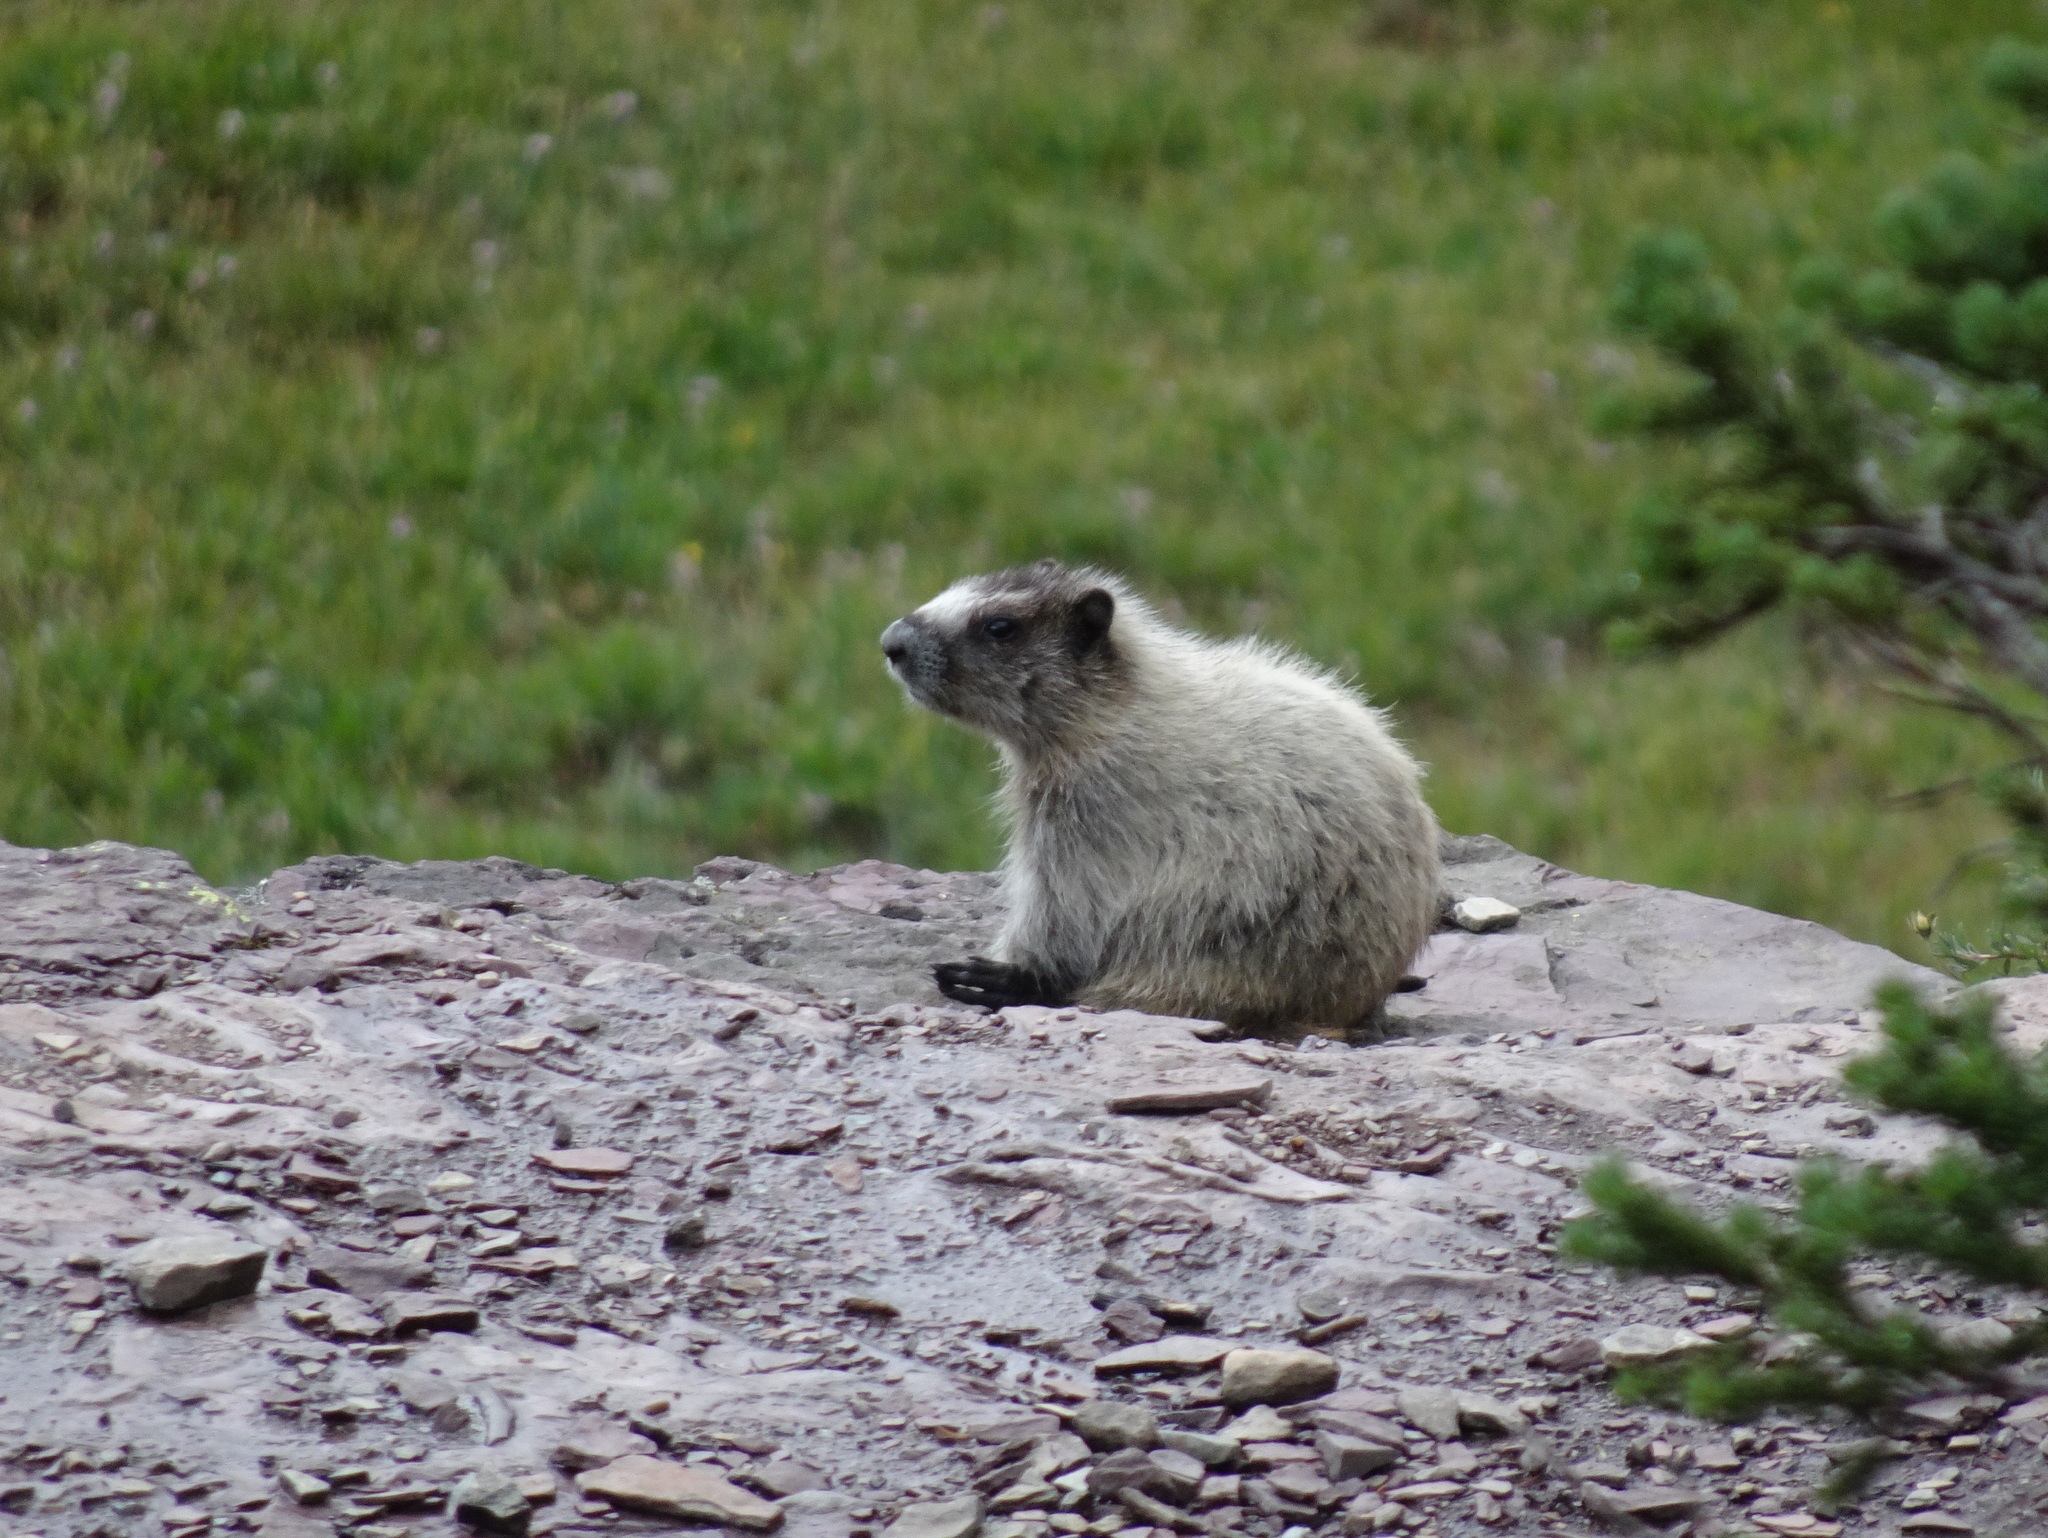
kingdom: Animalia
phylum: Chordata
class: Mammalia
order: Rodentia
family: Sciuridae
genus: Marmota
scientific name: Marmota caligata
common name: Hoary marmot
